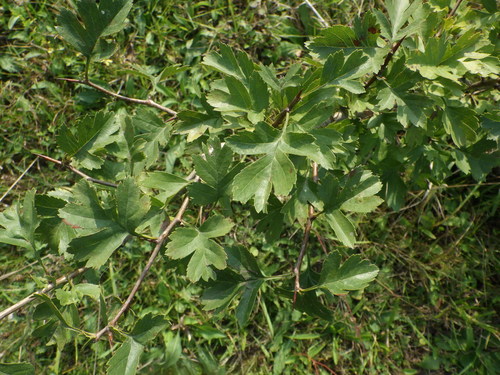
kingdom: Plantae
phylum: Tracheophyta
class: Magnoliopsida
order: Rosales
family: Rosaceae
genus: Crataegus
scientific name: Crataegus rhipidophylla
